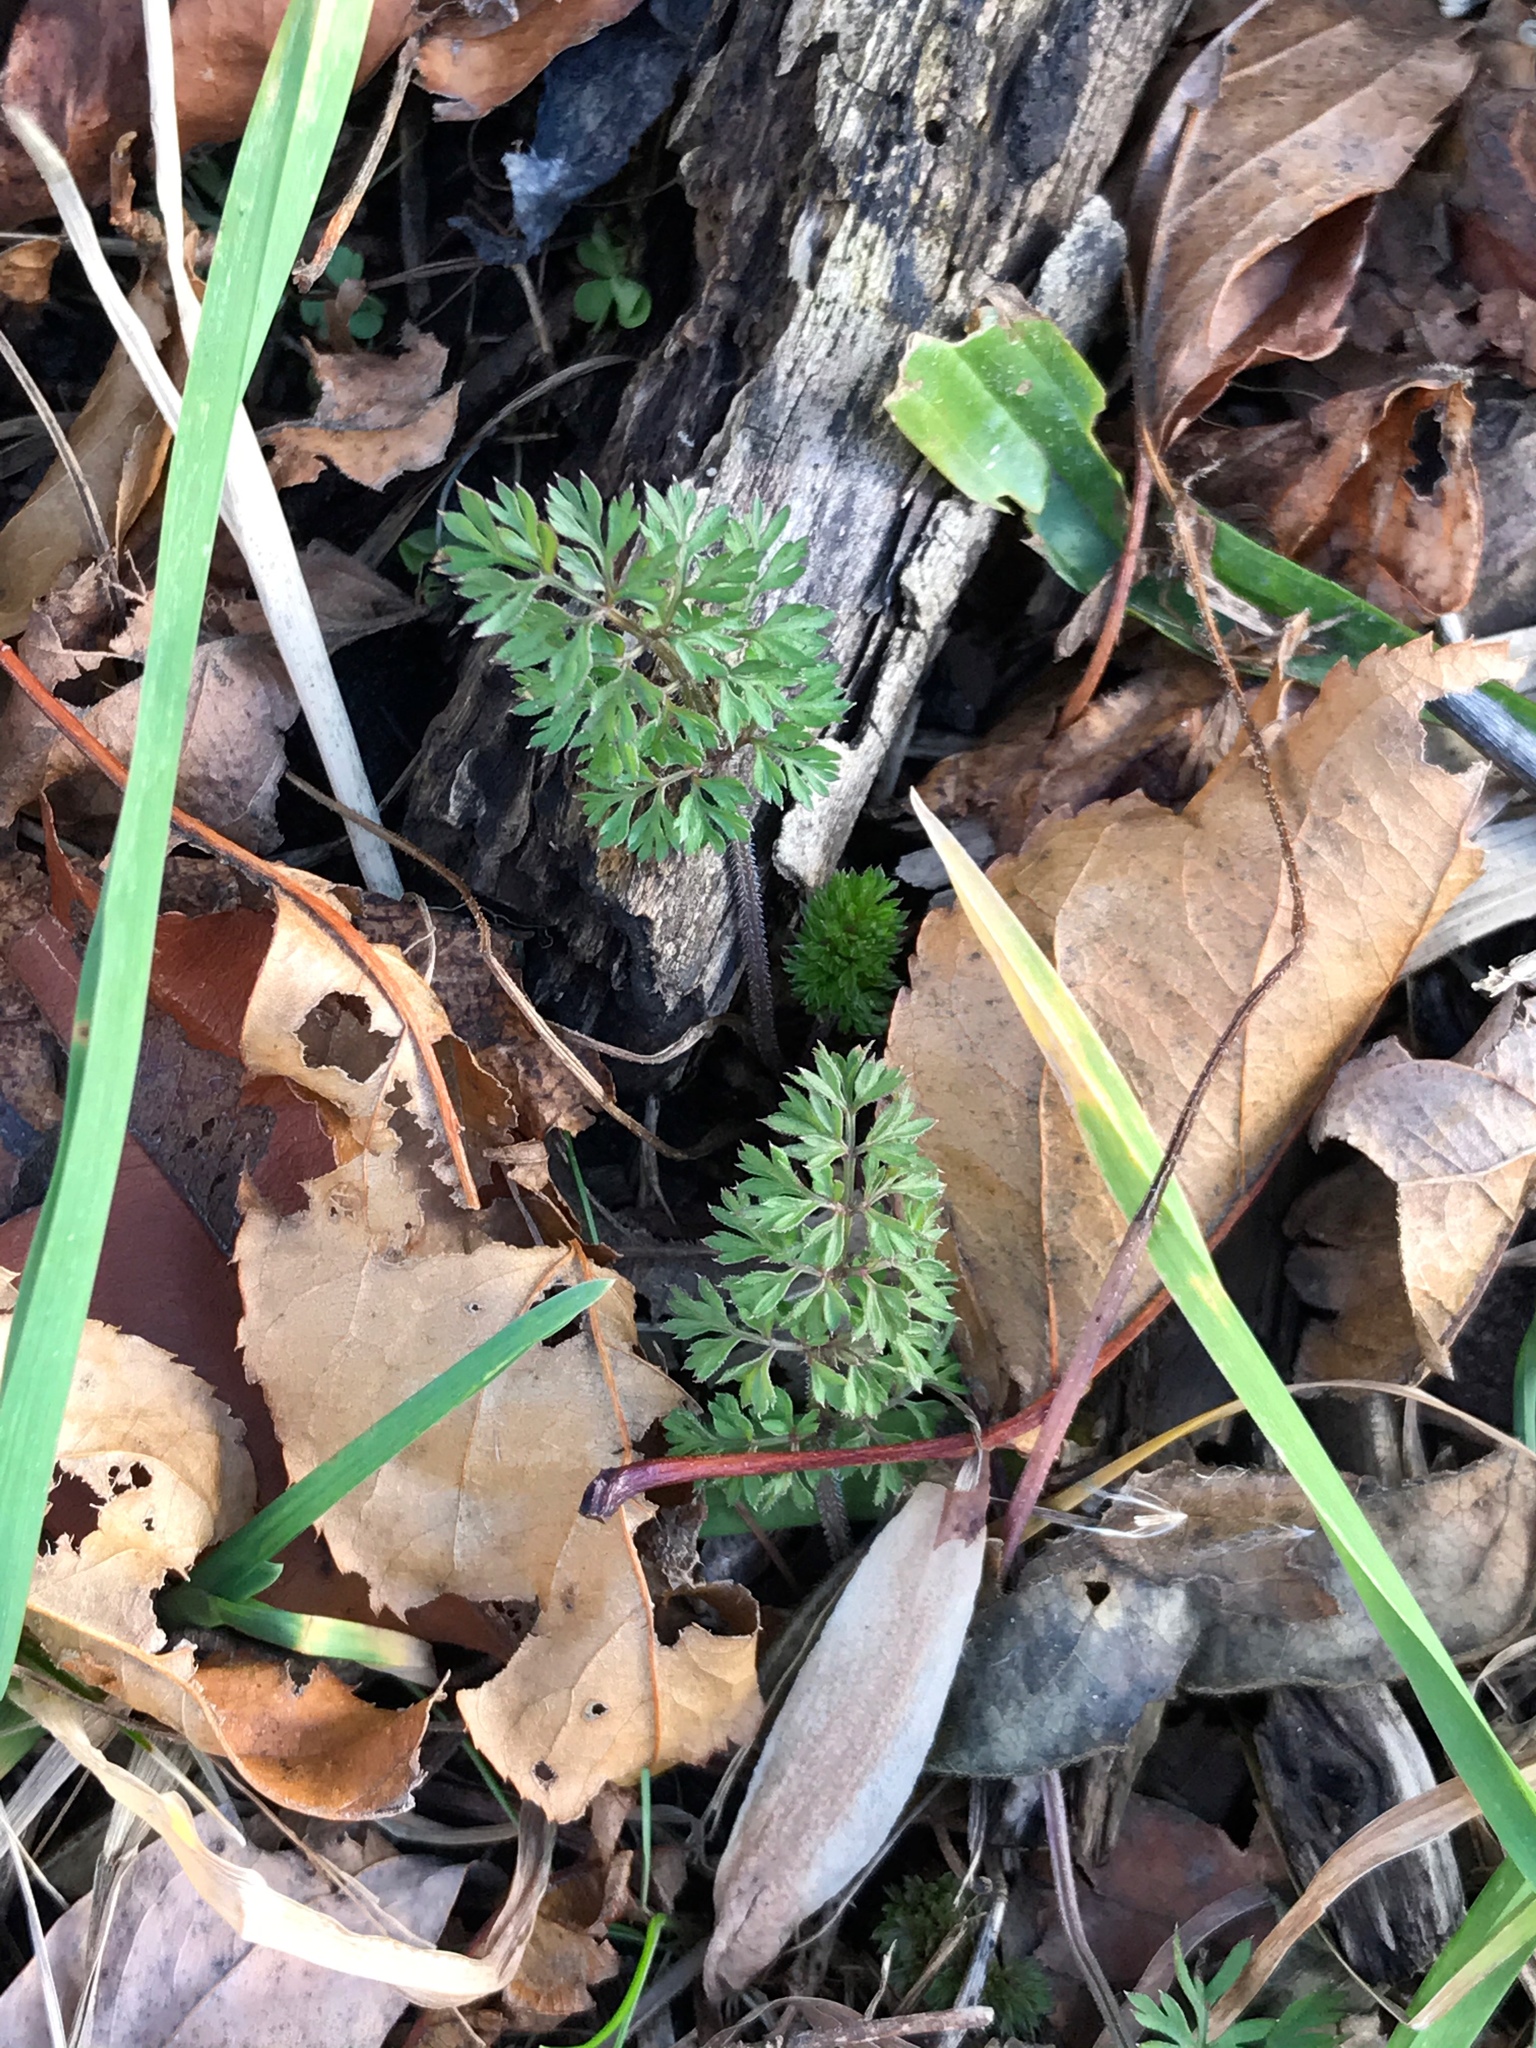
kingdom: Plantae
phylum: Tracheophyta
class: Magnoliopsida
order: Apiales
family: Apiaceae
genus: Daucus
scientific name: Daucus carota
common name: Wild carrot
